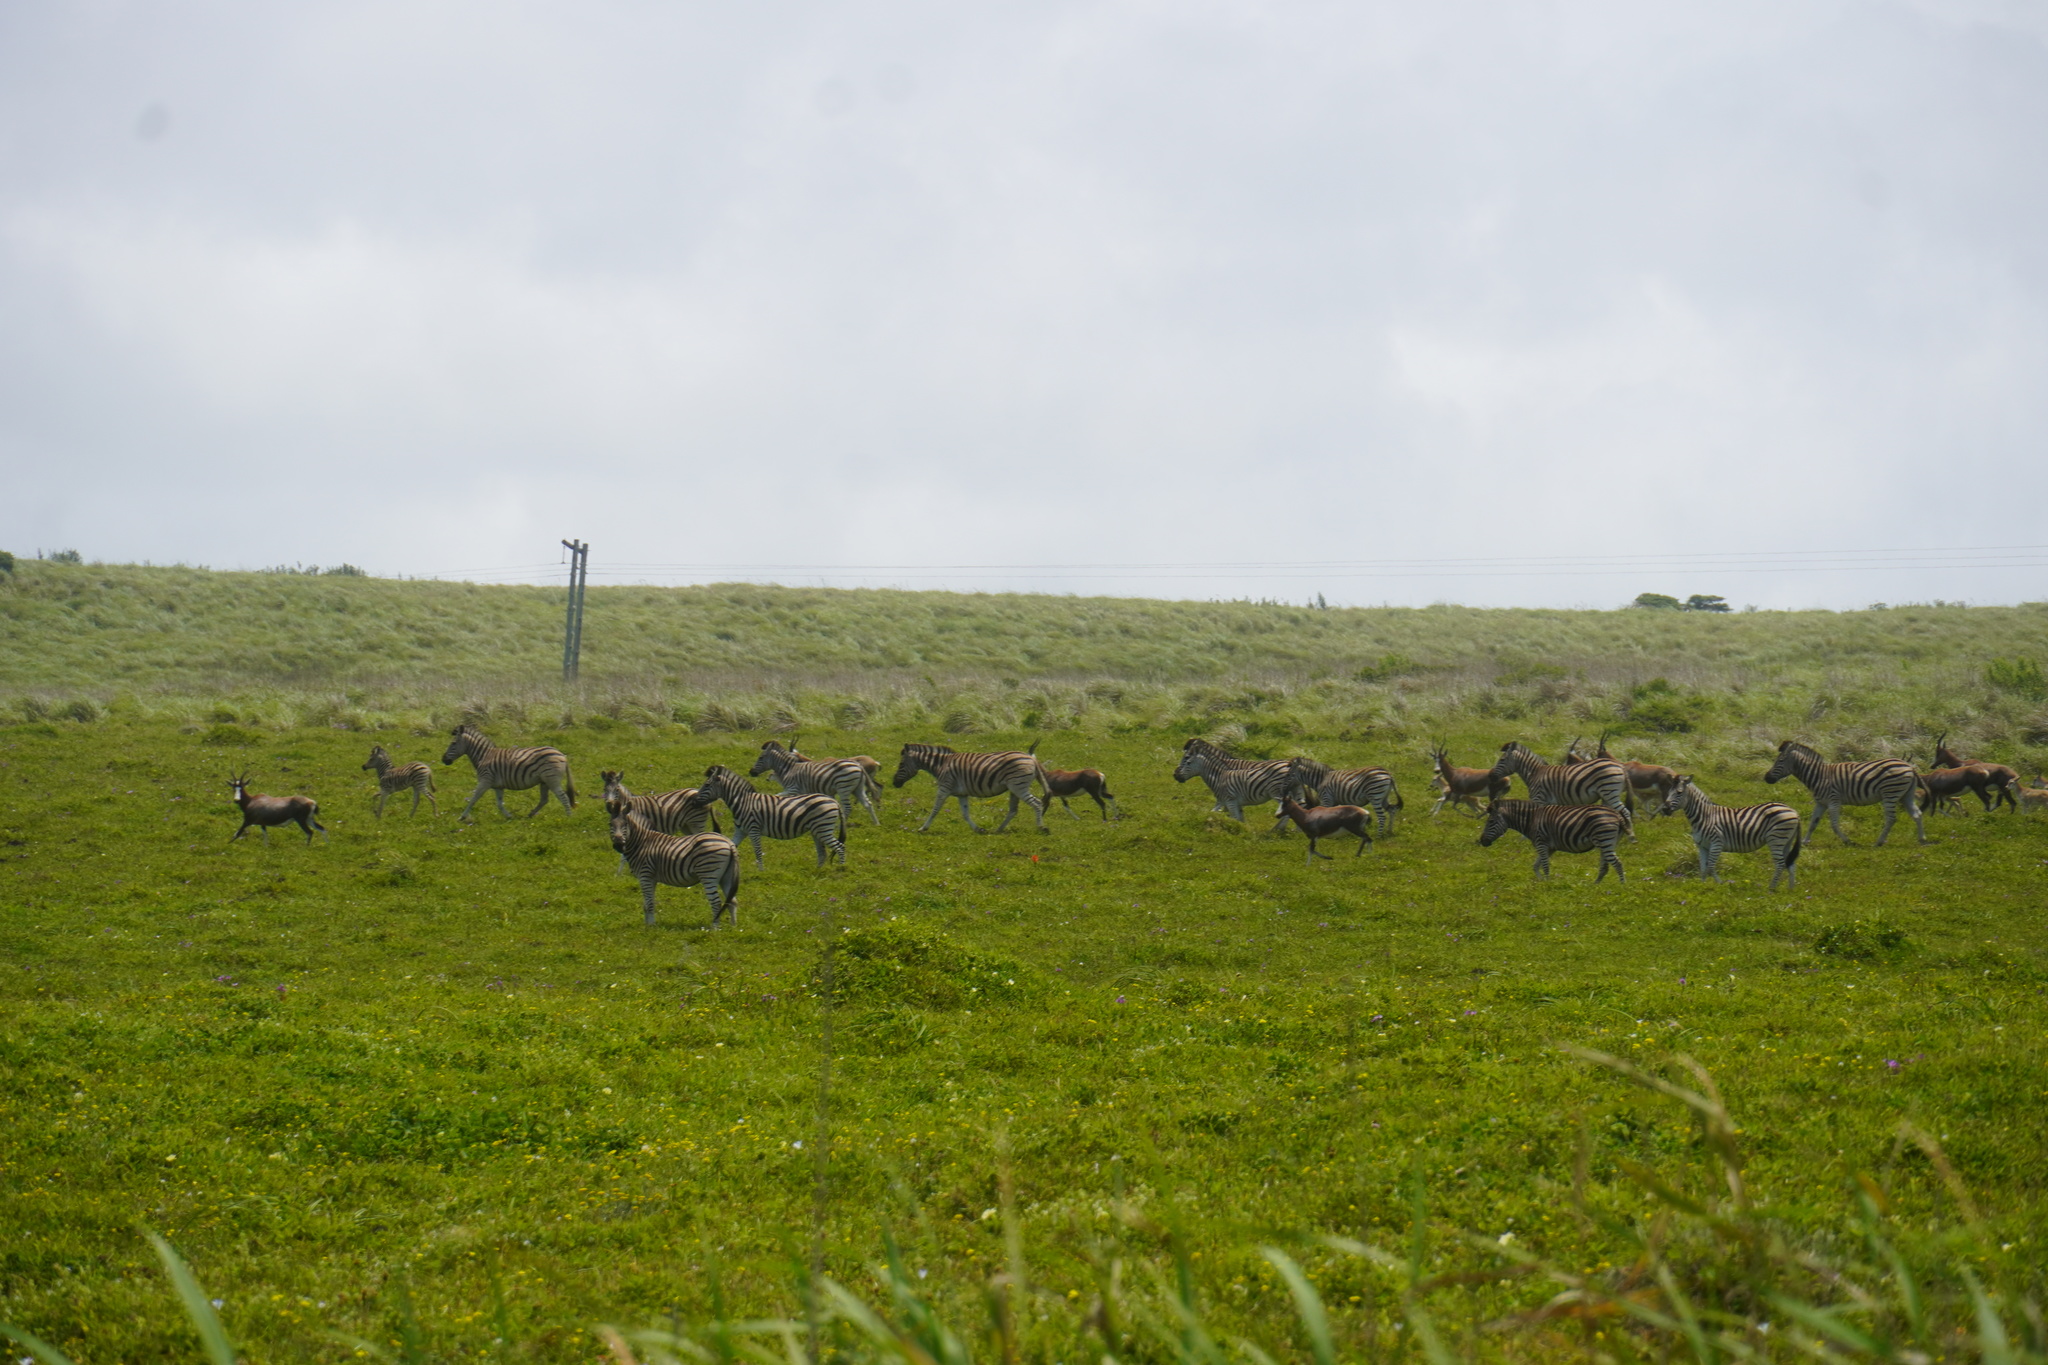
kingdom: Animalia
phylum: Chordata
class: Mammalia
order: Perissodactyla
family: Equidae
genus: Equus
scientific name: Equus quagga
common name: Plains zebra
